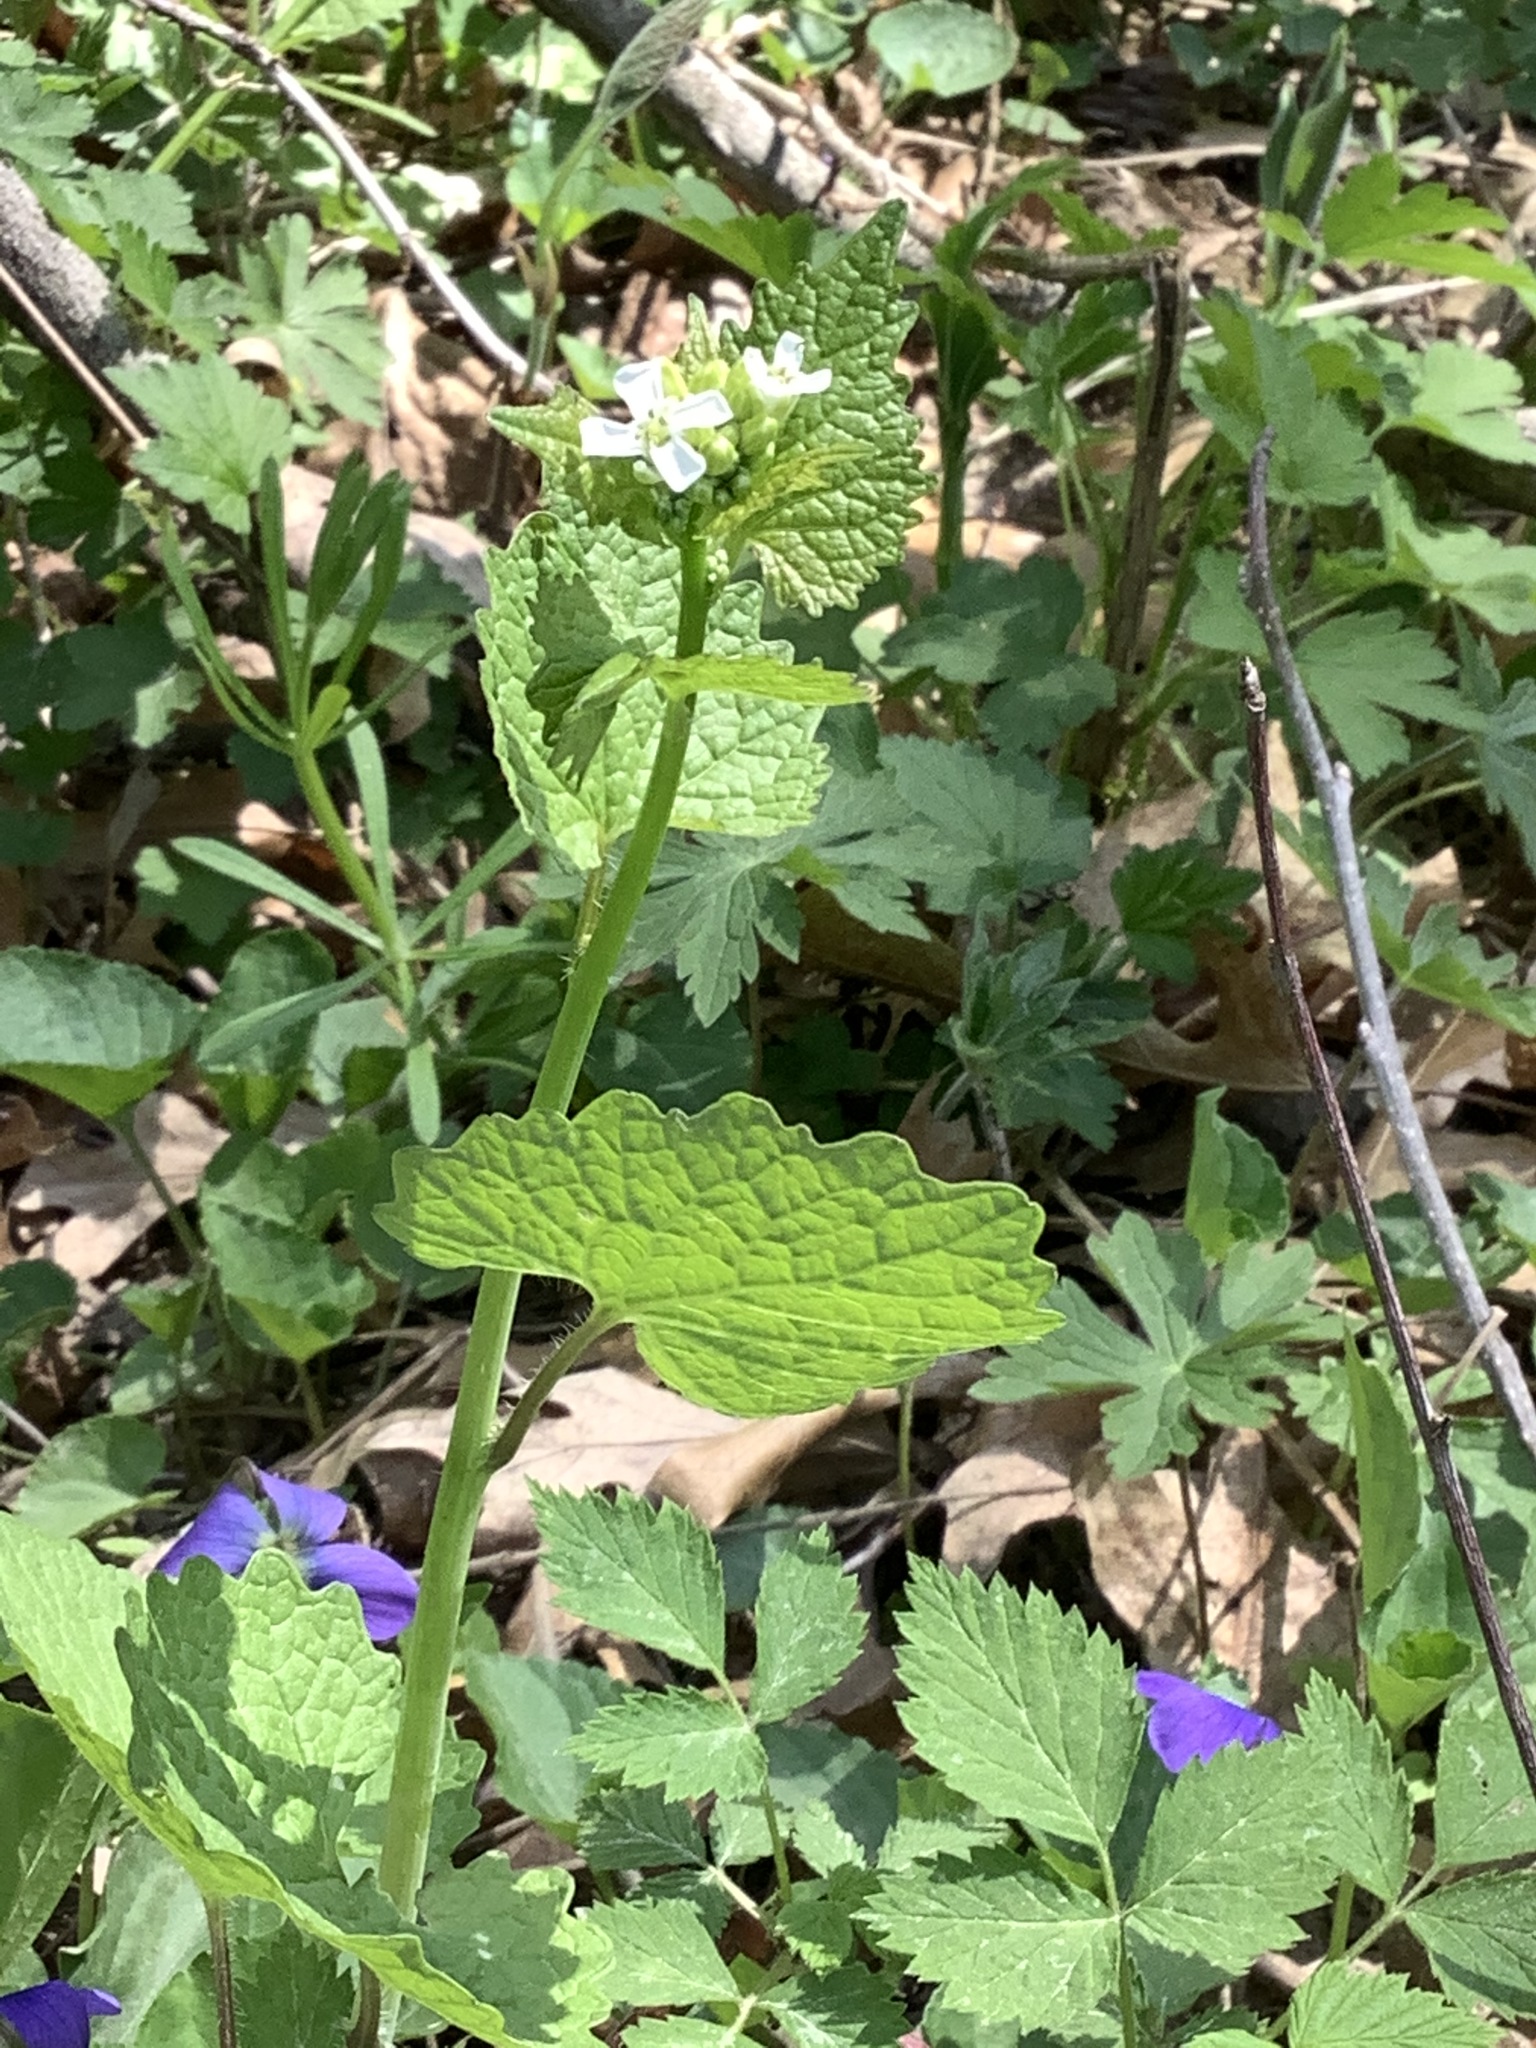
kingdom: Plantae
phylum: Tracheophyta
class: Magnoliopsida
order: Brassicales
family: Brassicaceae
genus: Alliaria
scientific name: Alliaria petiolata
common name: Garlic mustard
